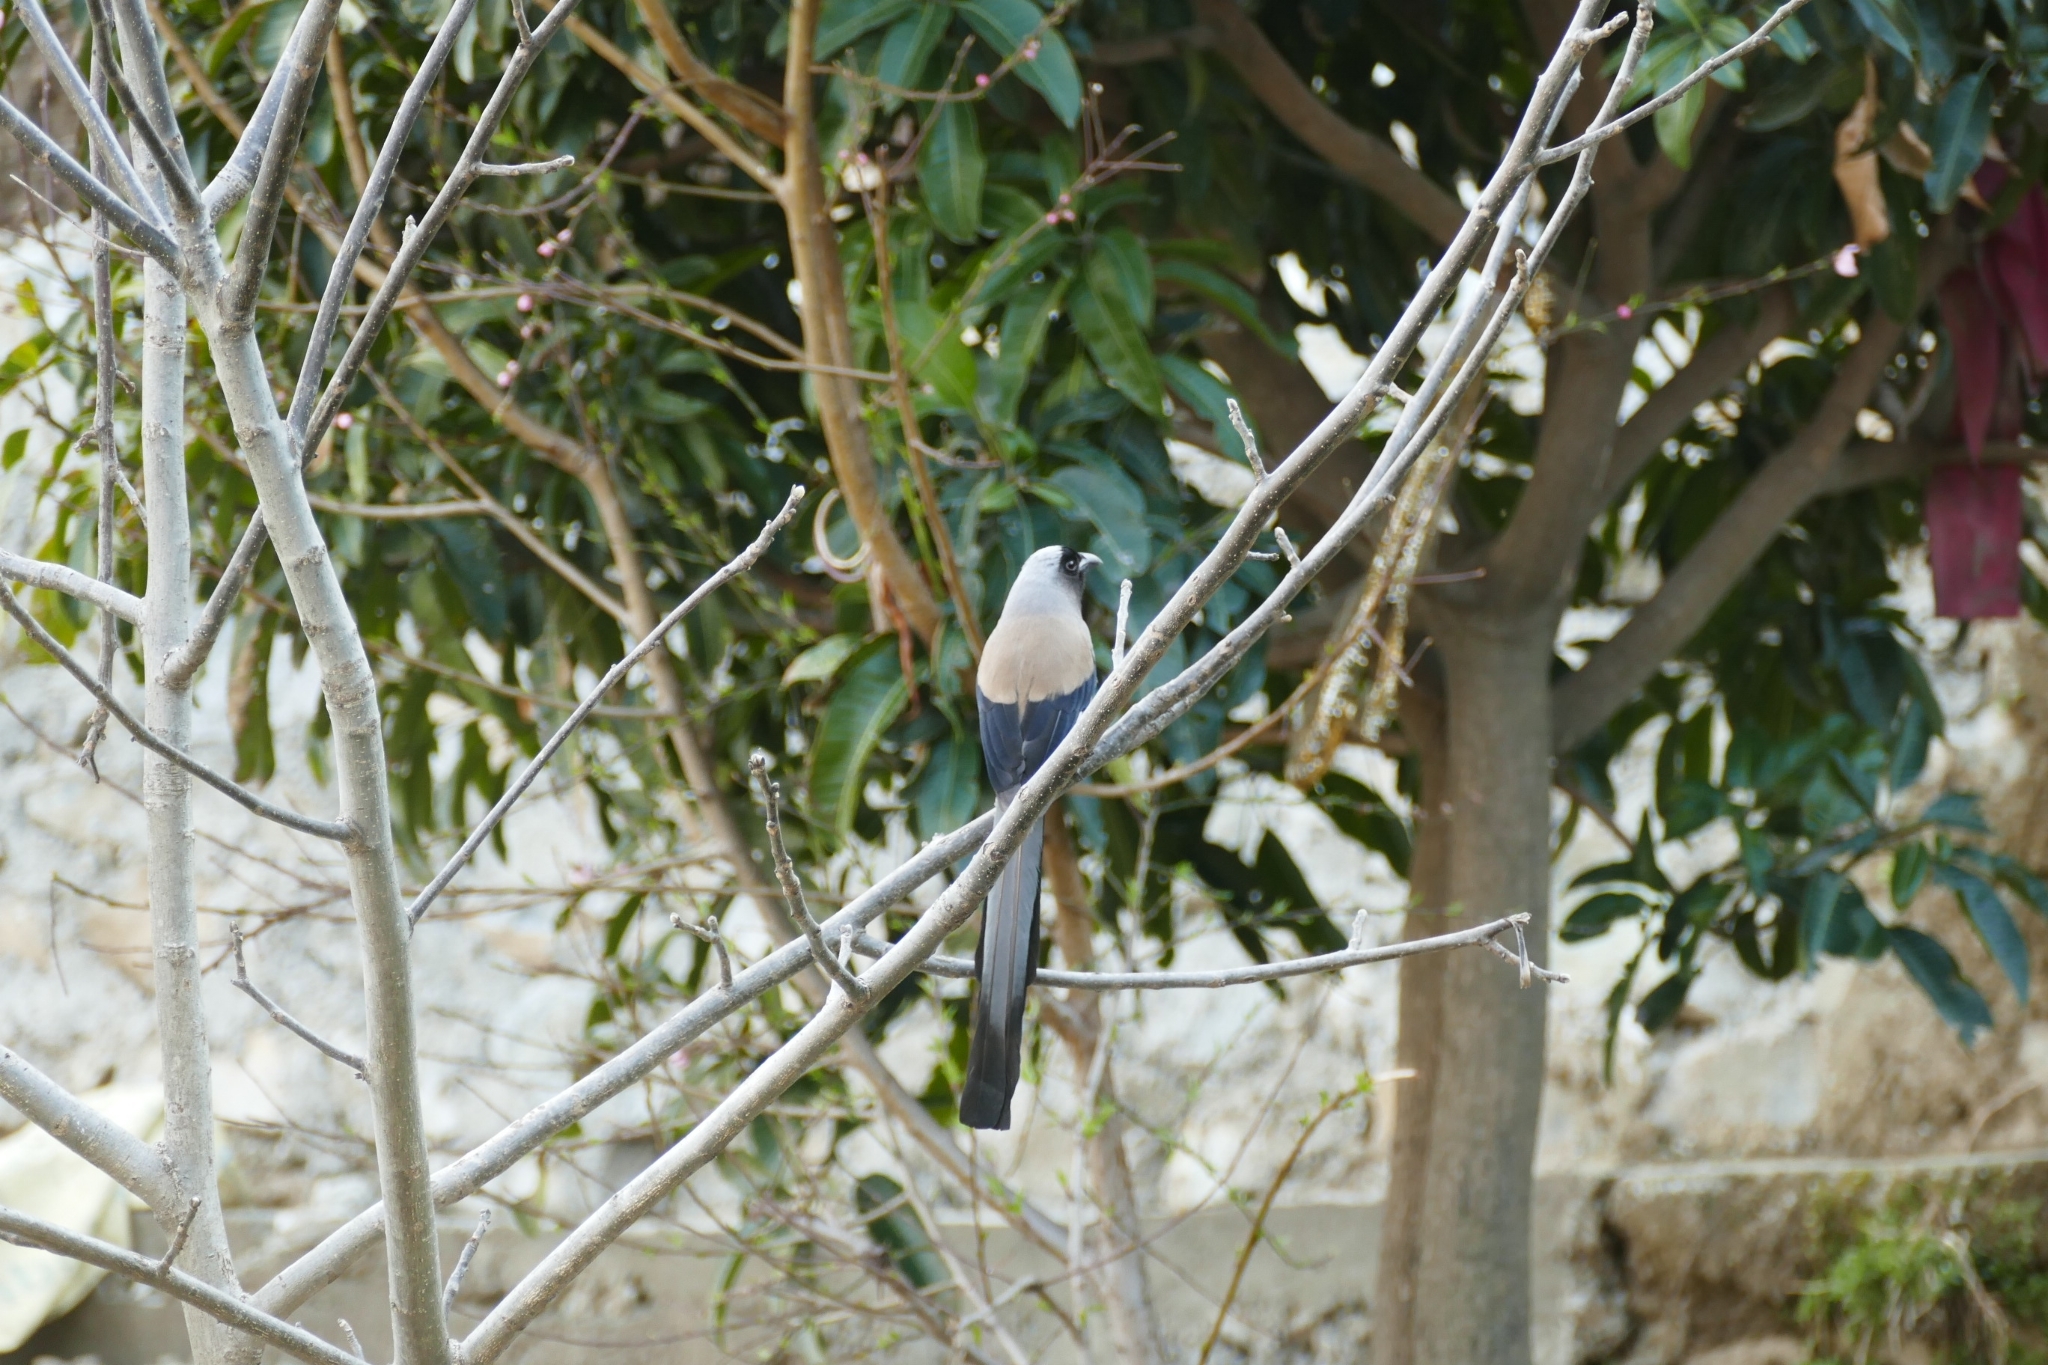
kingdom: Animalia
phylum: Chordata
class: Aves
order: Passeriformes
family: Corvidae
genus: Dendrocitta
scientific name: Dendrocitta formosae
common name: Grey treepie
